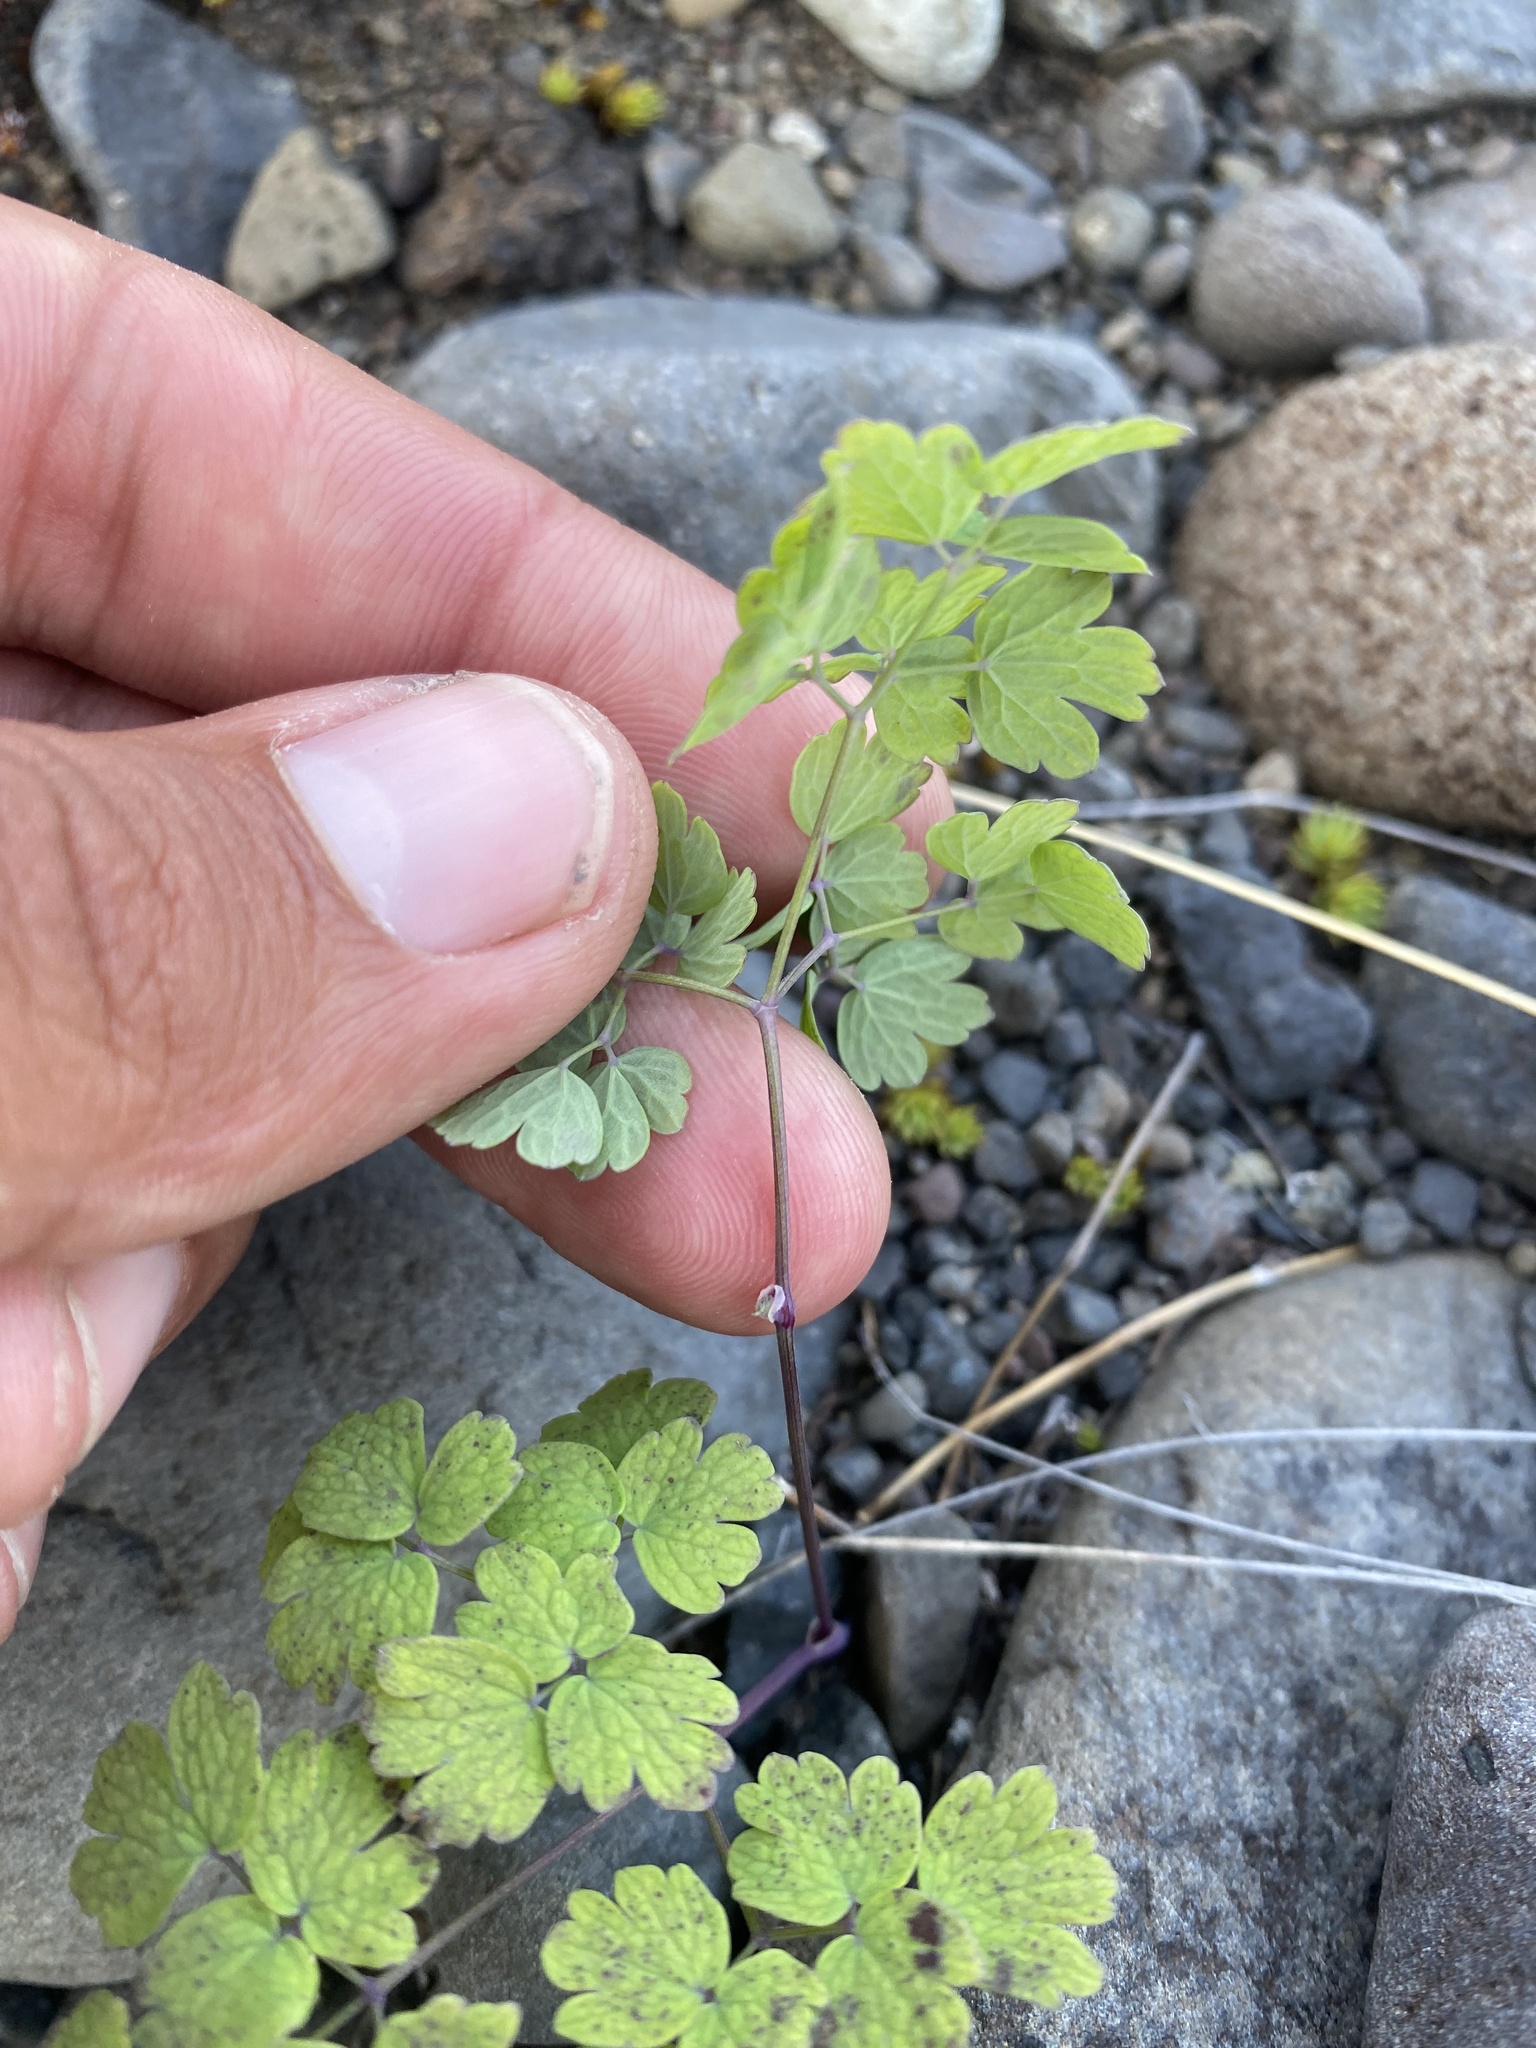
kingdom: Plantae
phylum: Tracheophyta
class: Magnoliopsida
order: Ranunculales
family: Ranunculaceae
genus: Thalictrum
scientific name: Thalictrum foetidum
